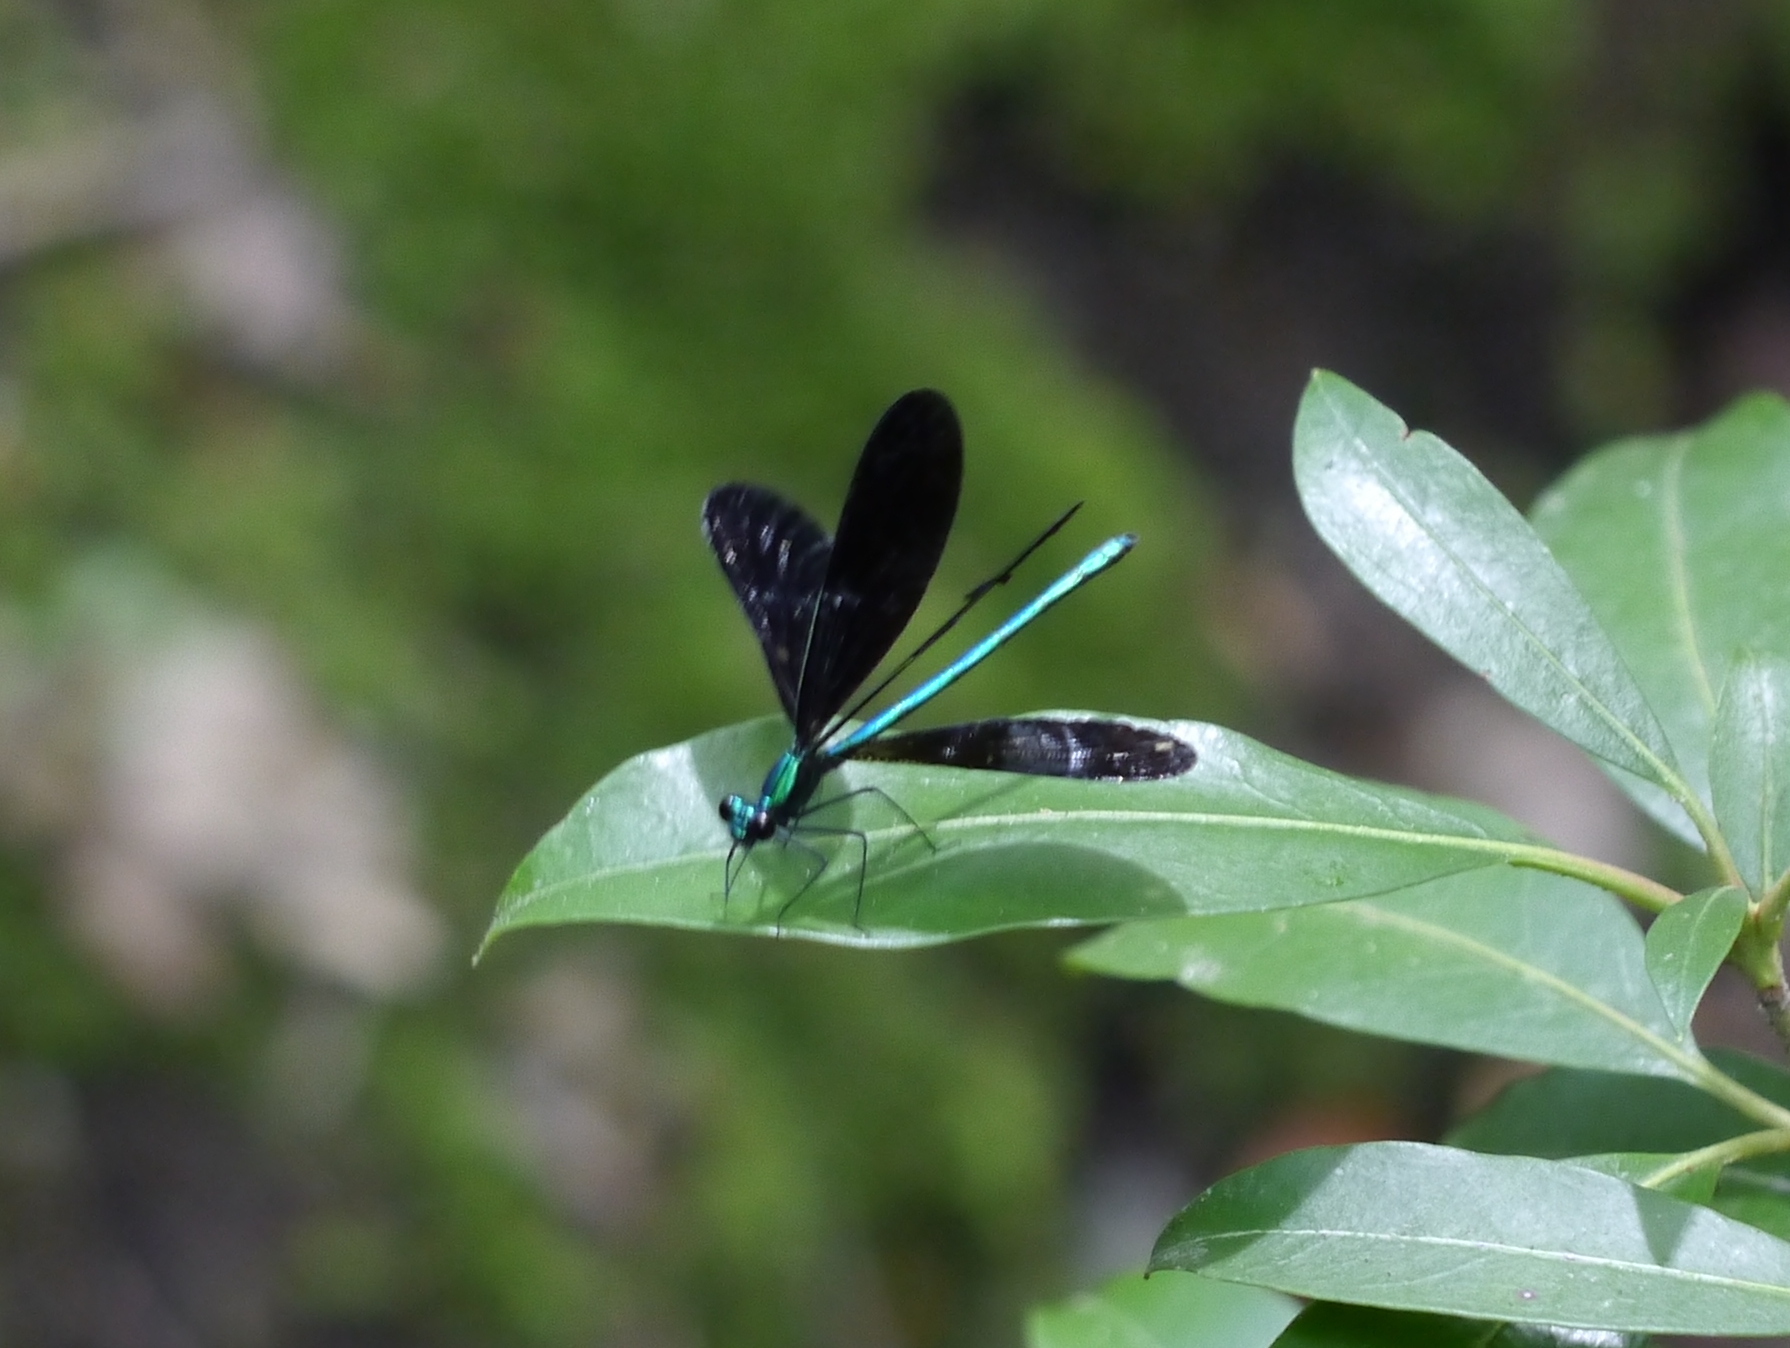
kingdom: Animalia
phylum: Arthropoda
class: Insecta
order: Odonata
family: Calopterygidae
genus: Calopteryx
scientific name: Calopteryx maculata
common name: Ebony jewelwing
